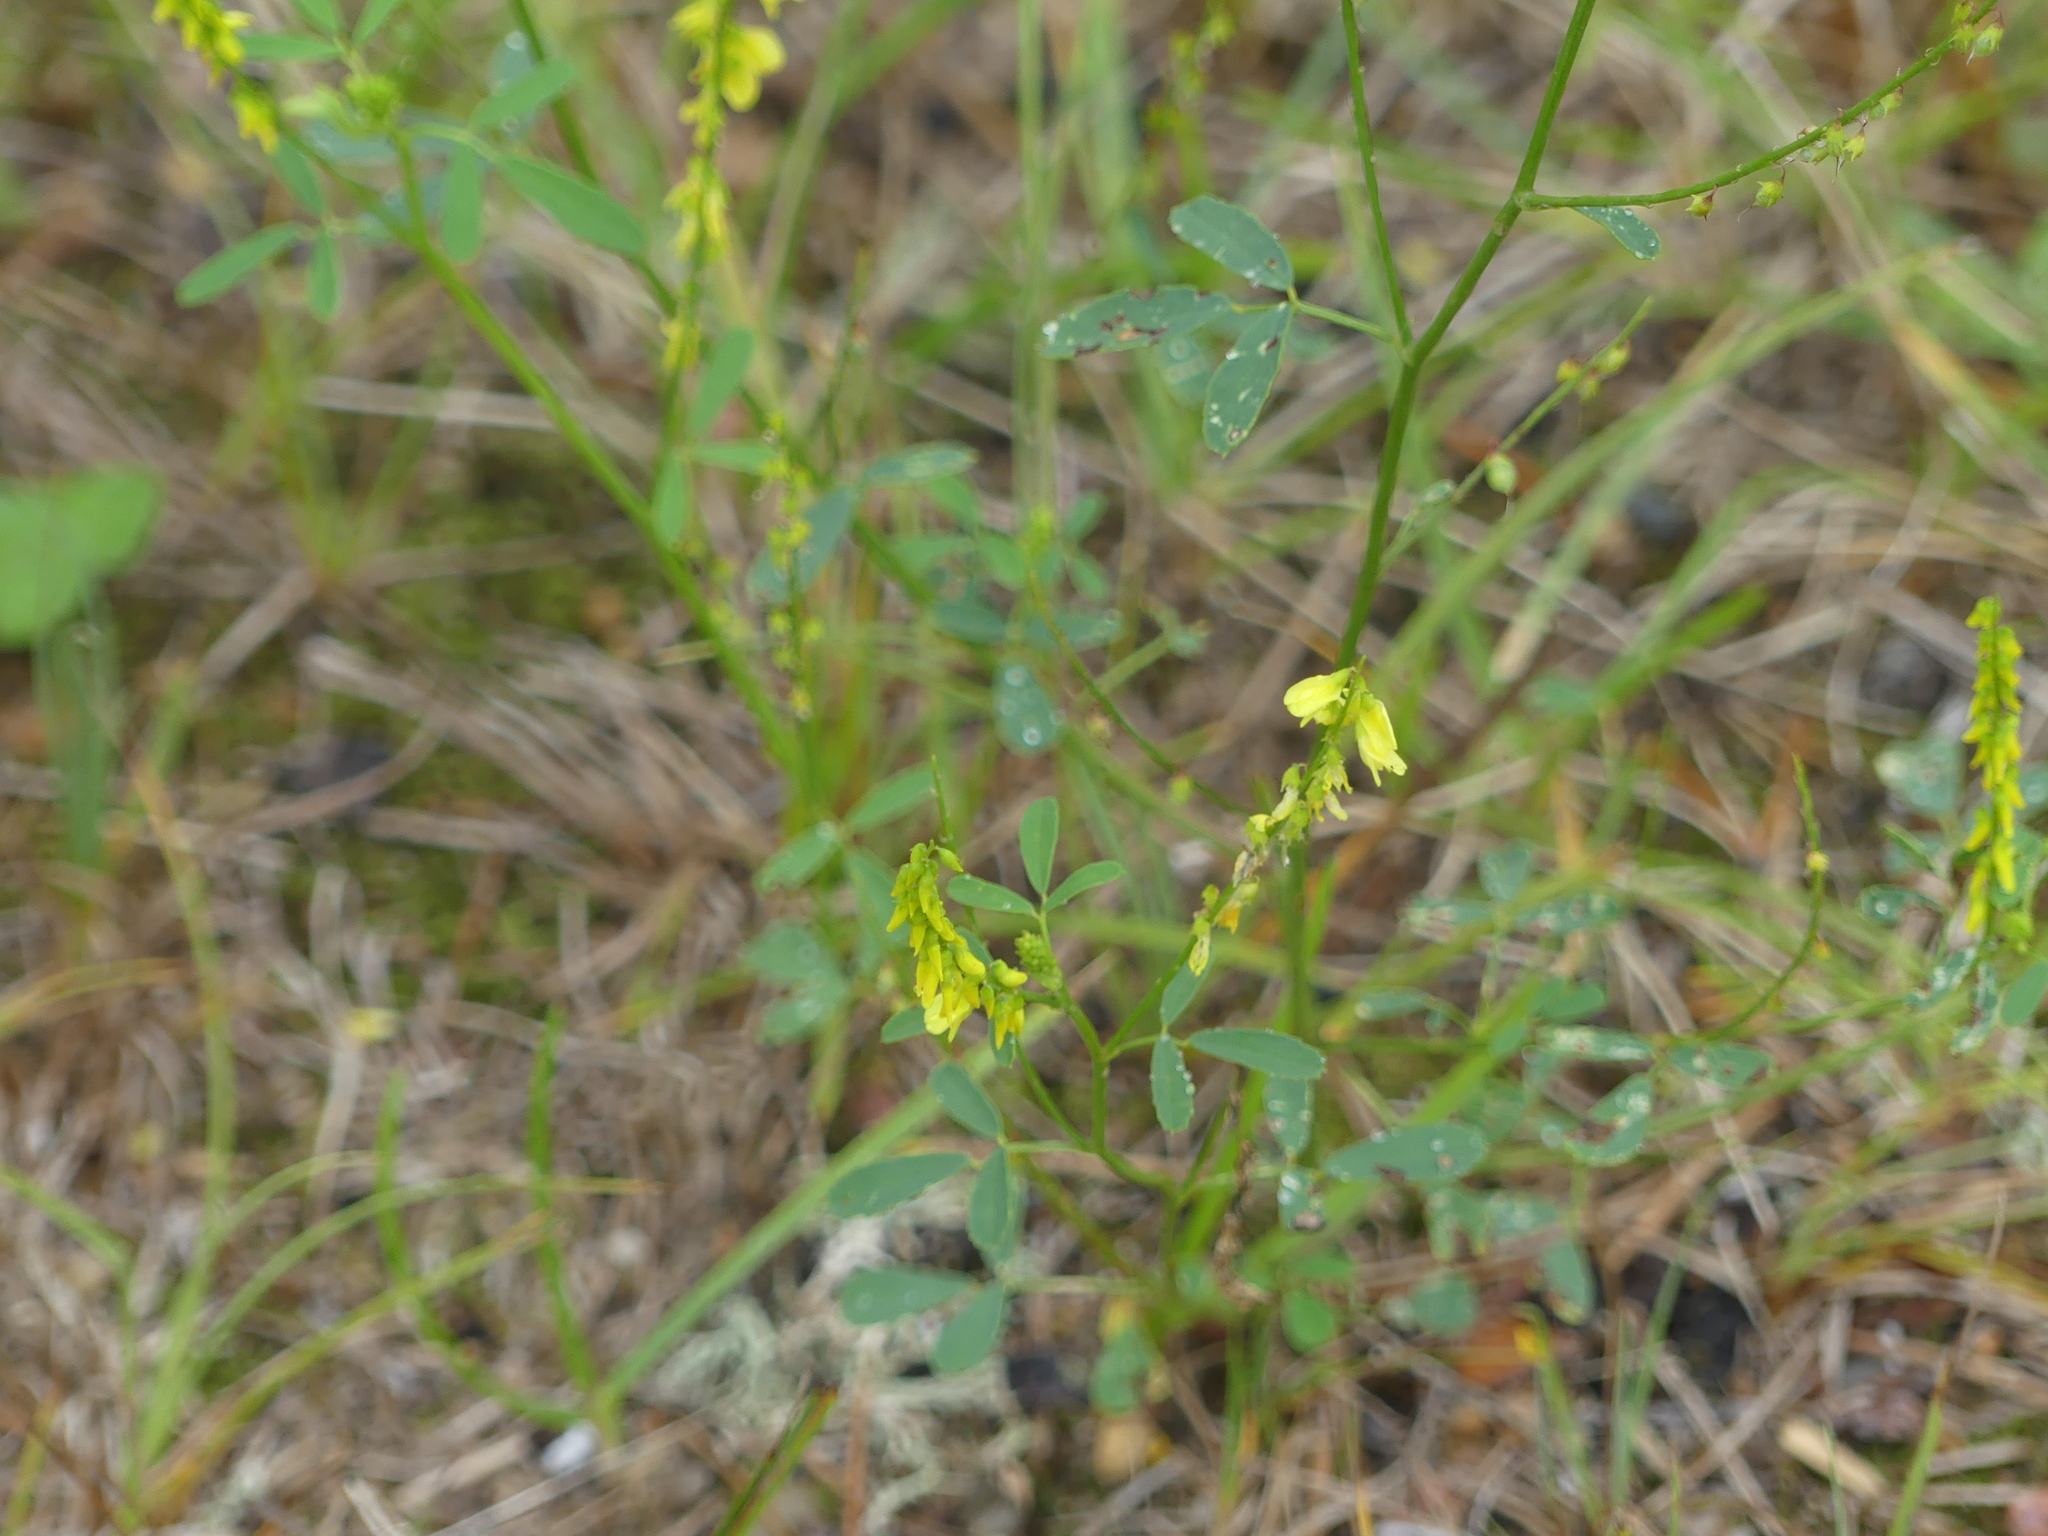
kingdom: Plantae
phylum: Tracheophyta
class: Magnoliopsida
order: Fabales
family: Fabaceae
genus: Melilotus
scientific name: Melilotus officinalis
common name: Sweetclover
